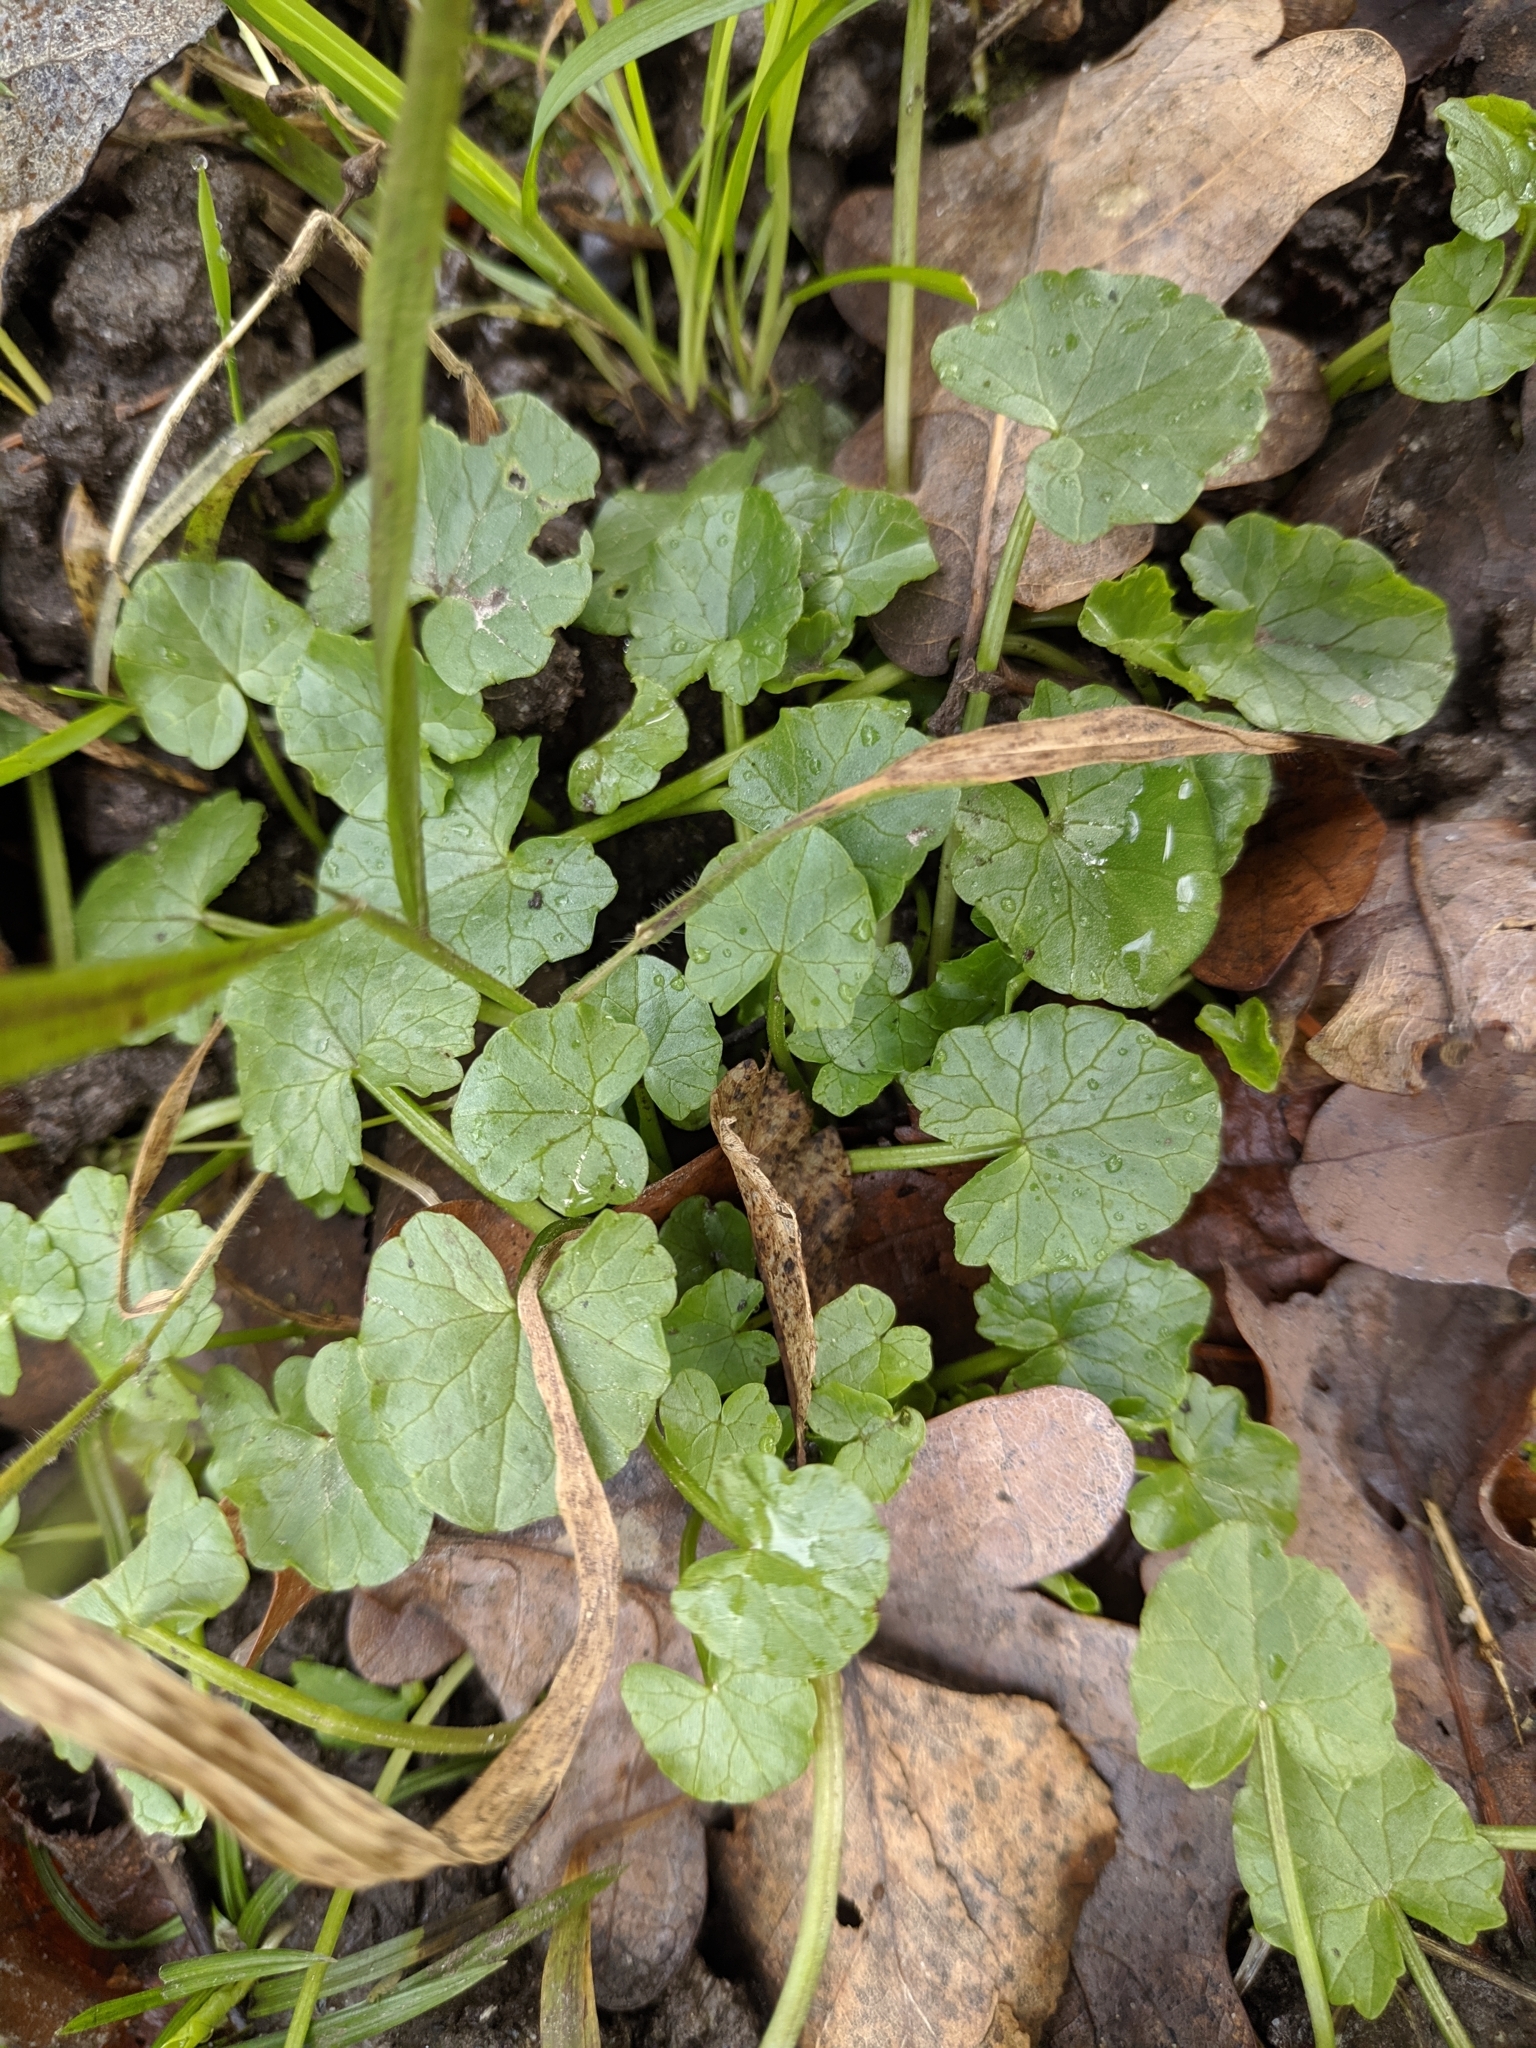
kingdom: Plantae
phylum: Tracheophyta
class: Magnoliopsida
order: Ranunculales
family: Ranunculaceae
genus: Ficaria
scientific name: Ficaria verna
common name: Lesser celandine
